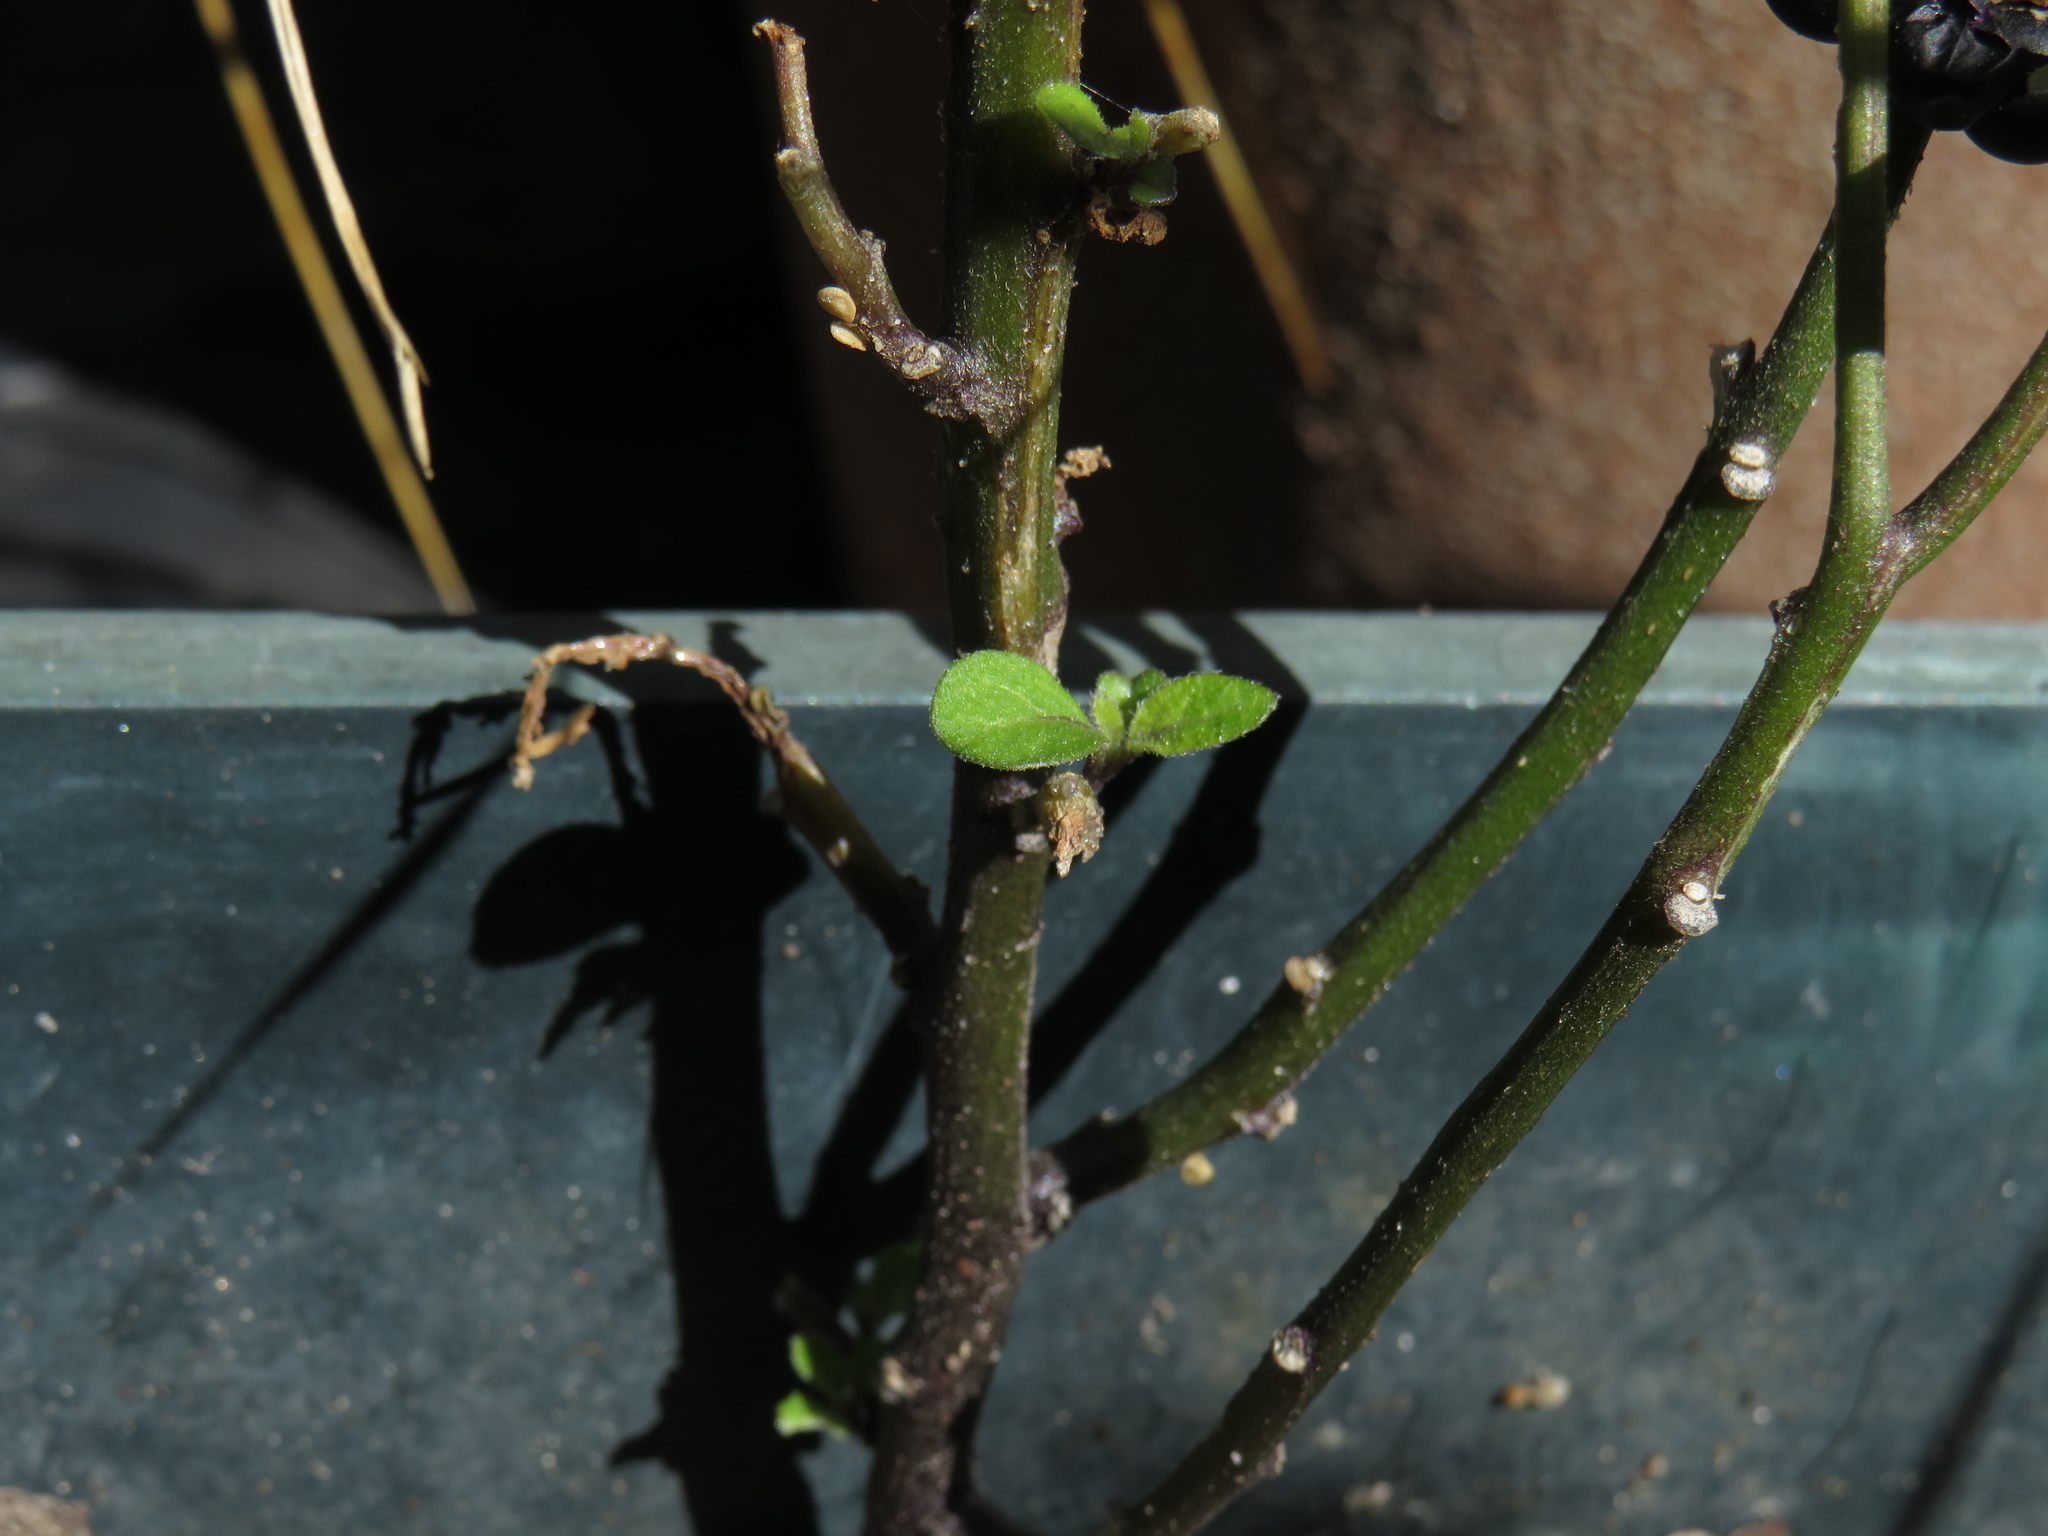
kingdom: Plantae
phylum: Tracheophyta
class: Magnoliopsida
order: Solanales
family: Solanaceae
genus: Solanum
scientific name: Solanum nigrum
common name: Black nightshade
